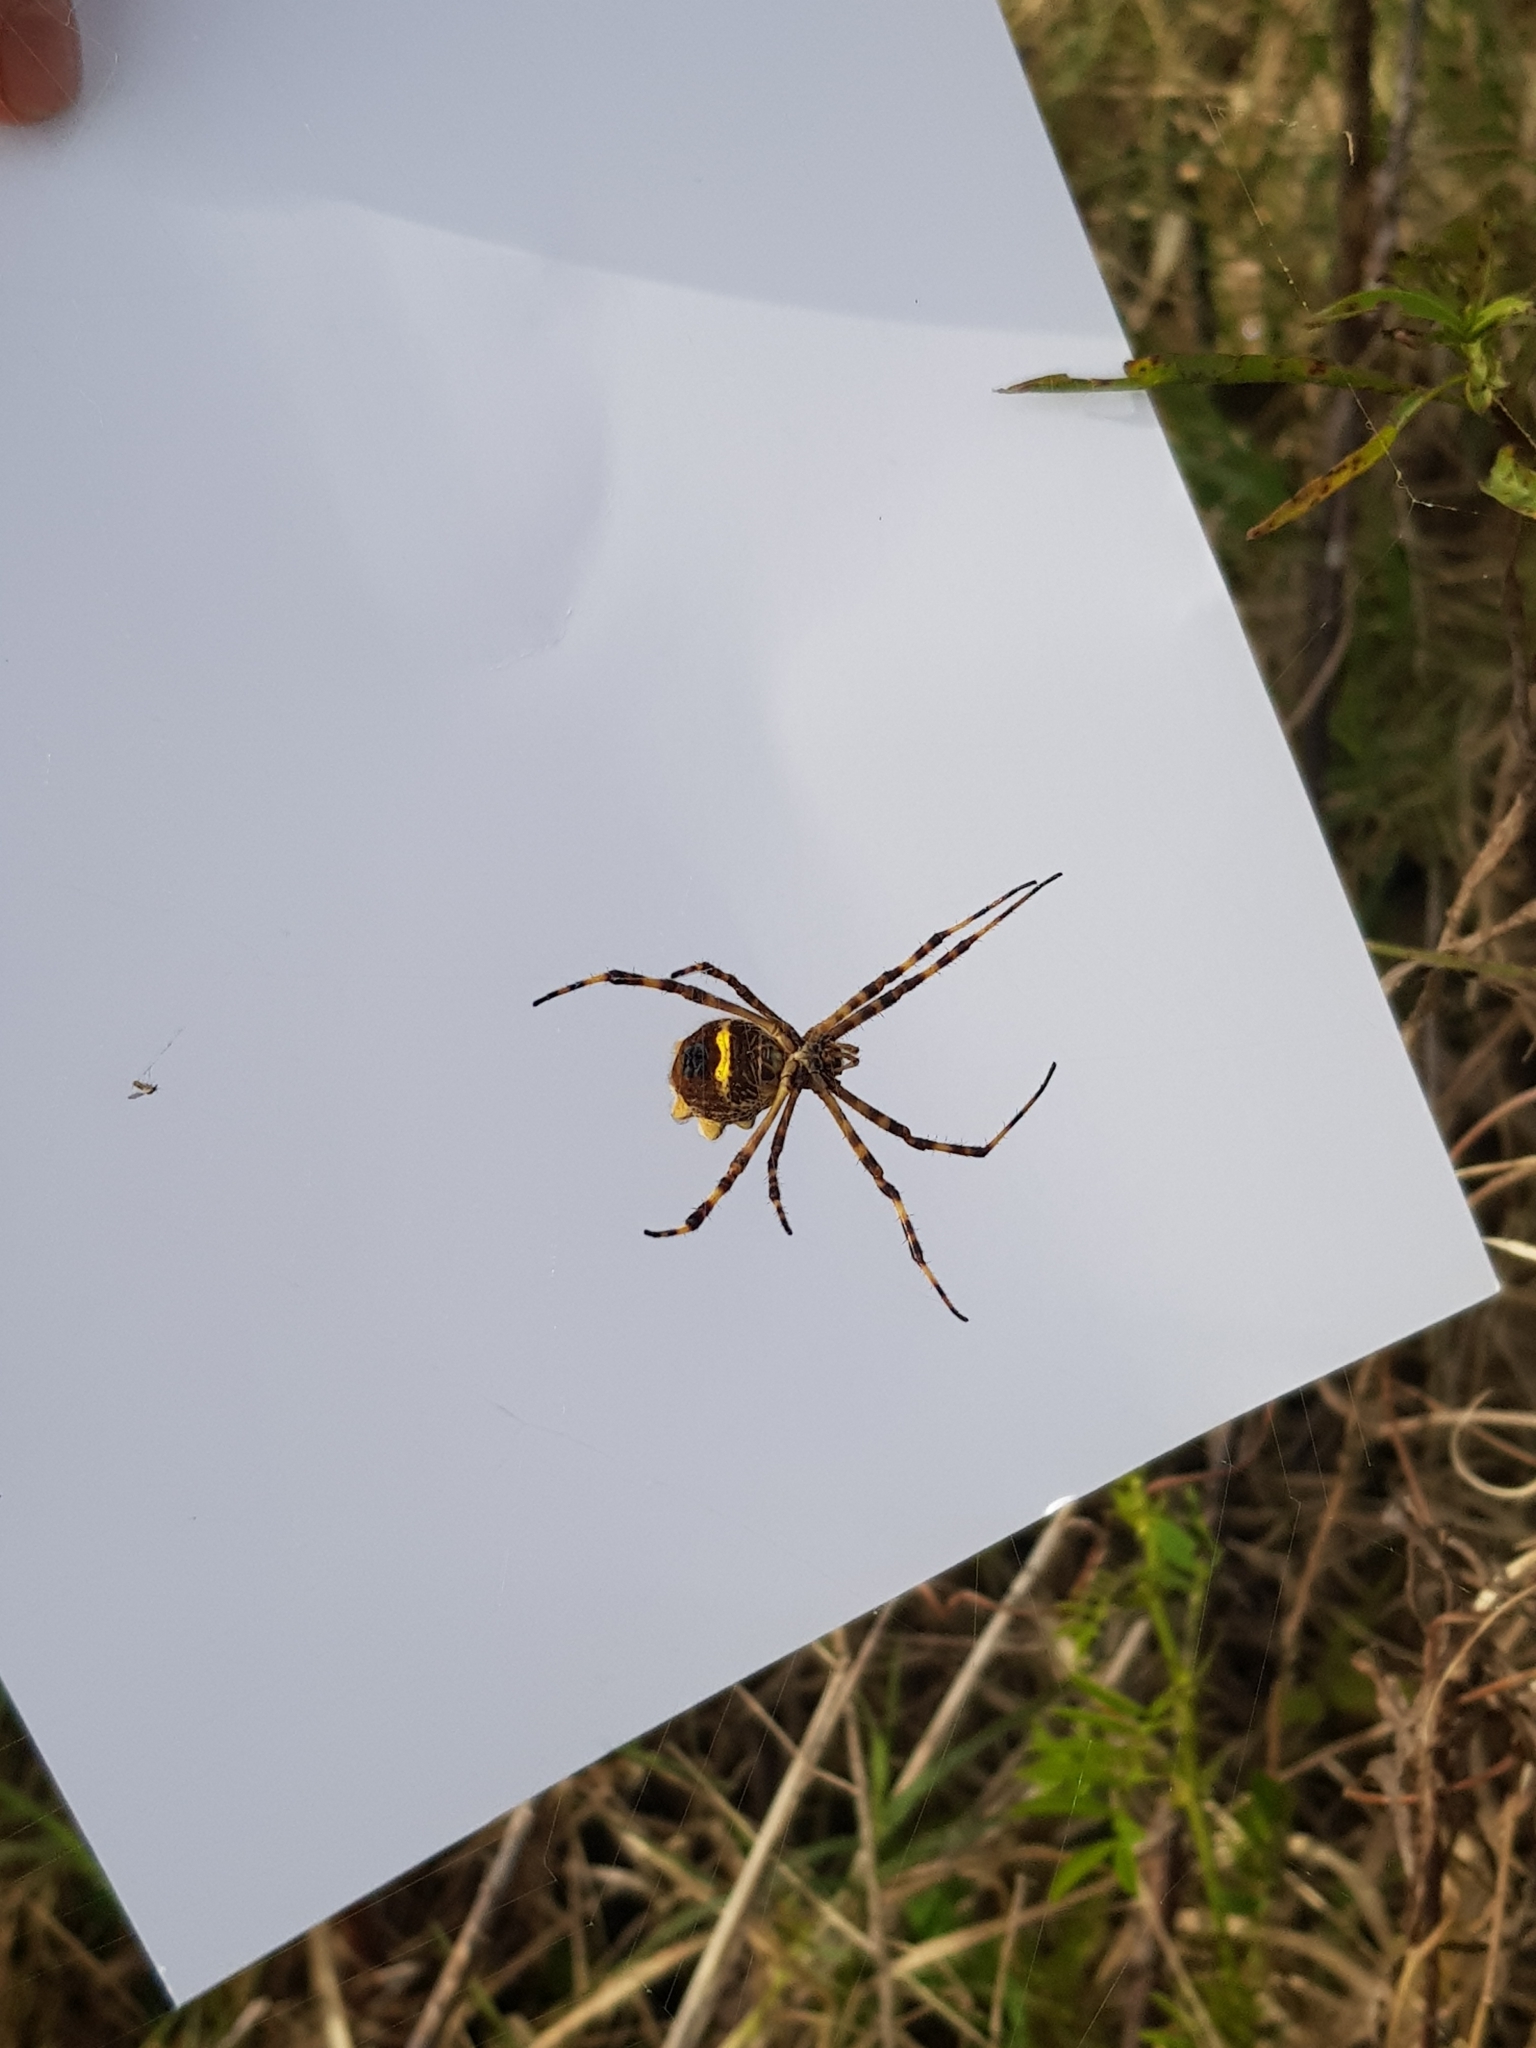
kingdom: Animalia
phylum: Arthropoda
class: Arachnida
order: Araneae
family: Araneidae
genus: Argiope
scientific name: Argiope argentata
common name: Orb weavers
